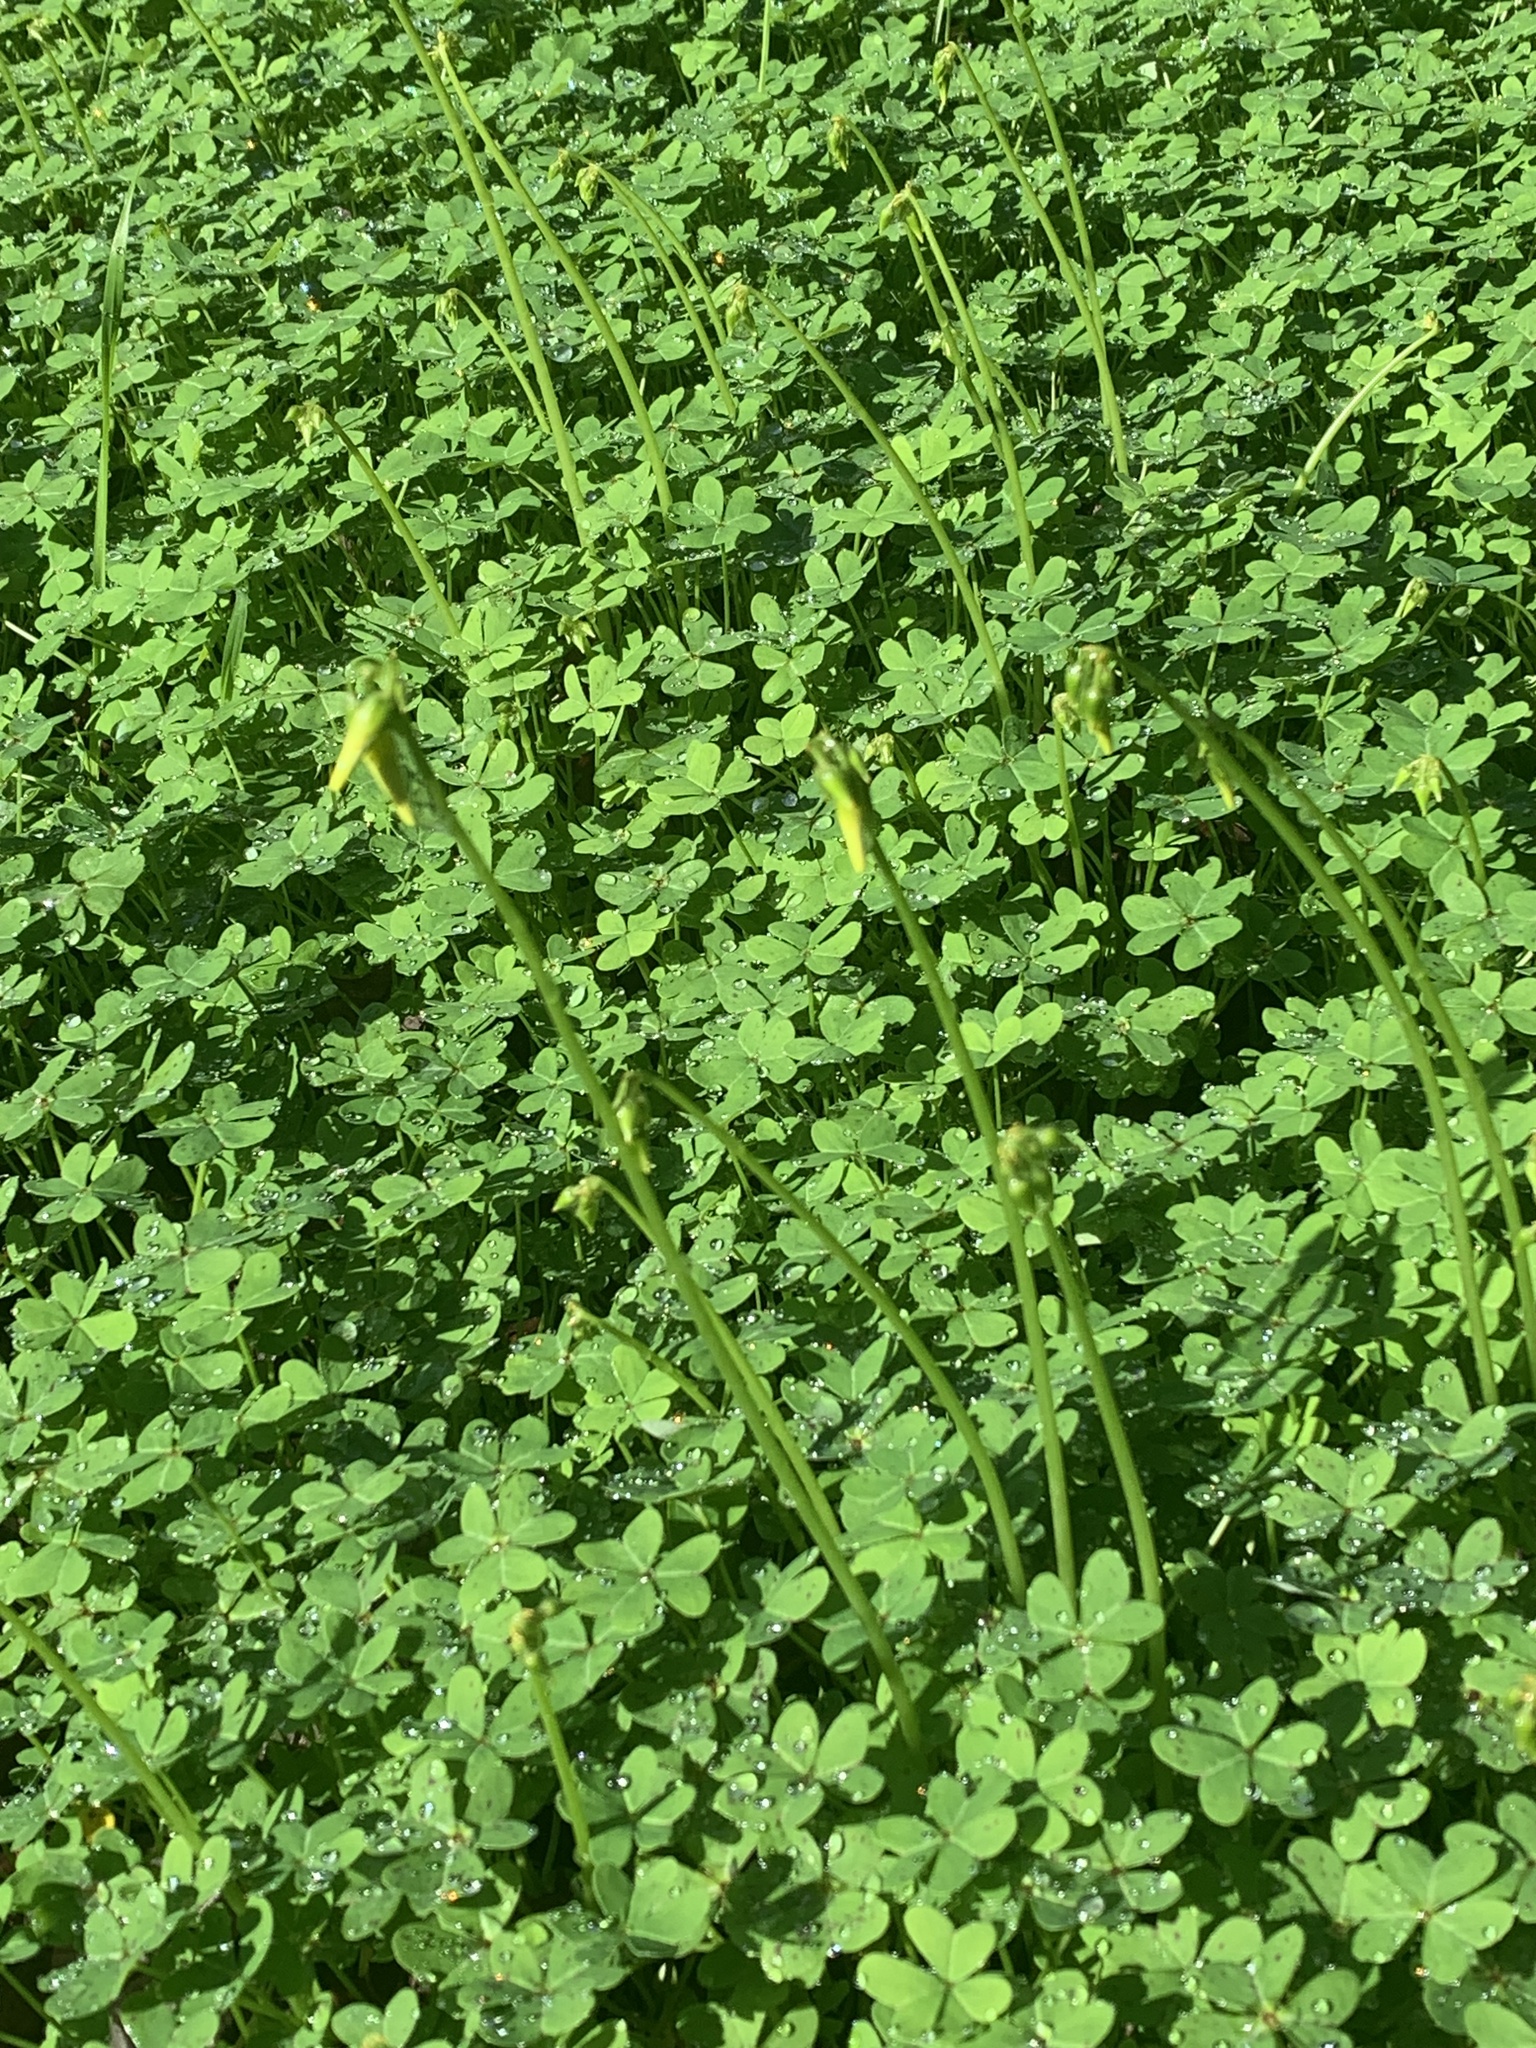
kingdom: Plantae
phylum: Tracheophyta
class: Magnoliopsida
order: Oxalidales
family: Oxalidaceae
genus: Oxalis
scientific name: Oxalis pes-caprae
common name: Bermuda-buttercup
